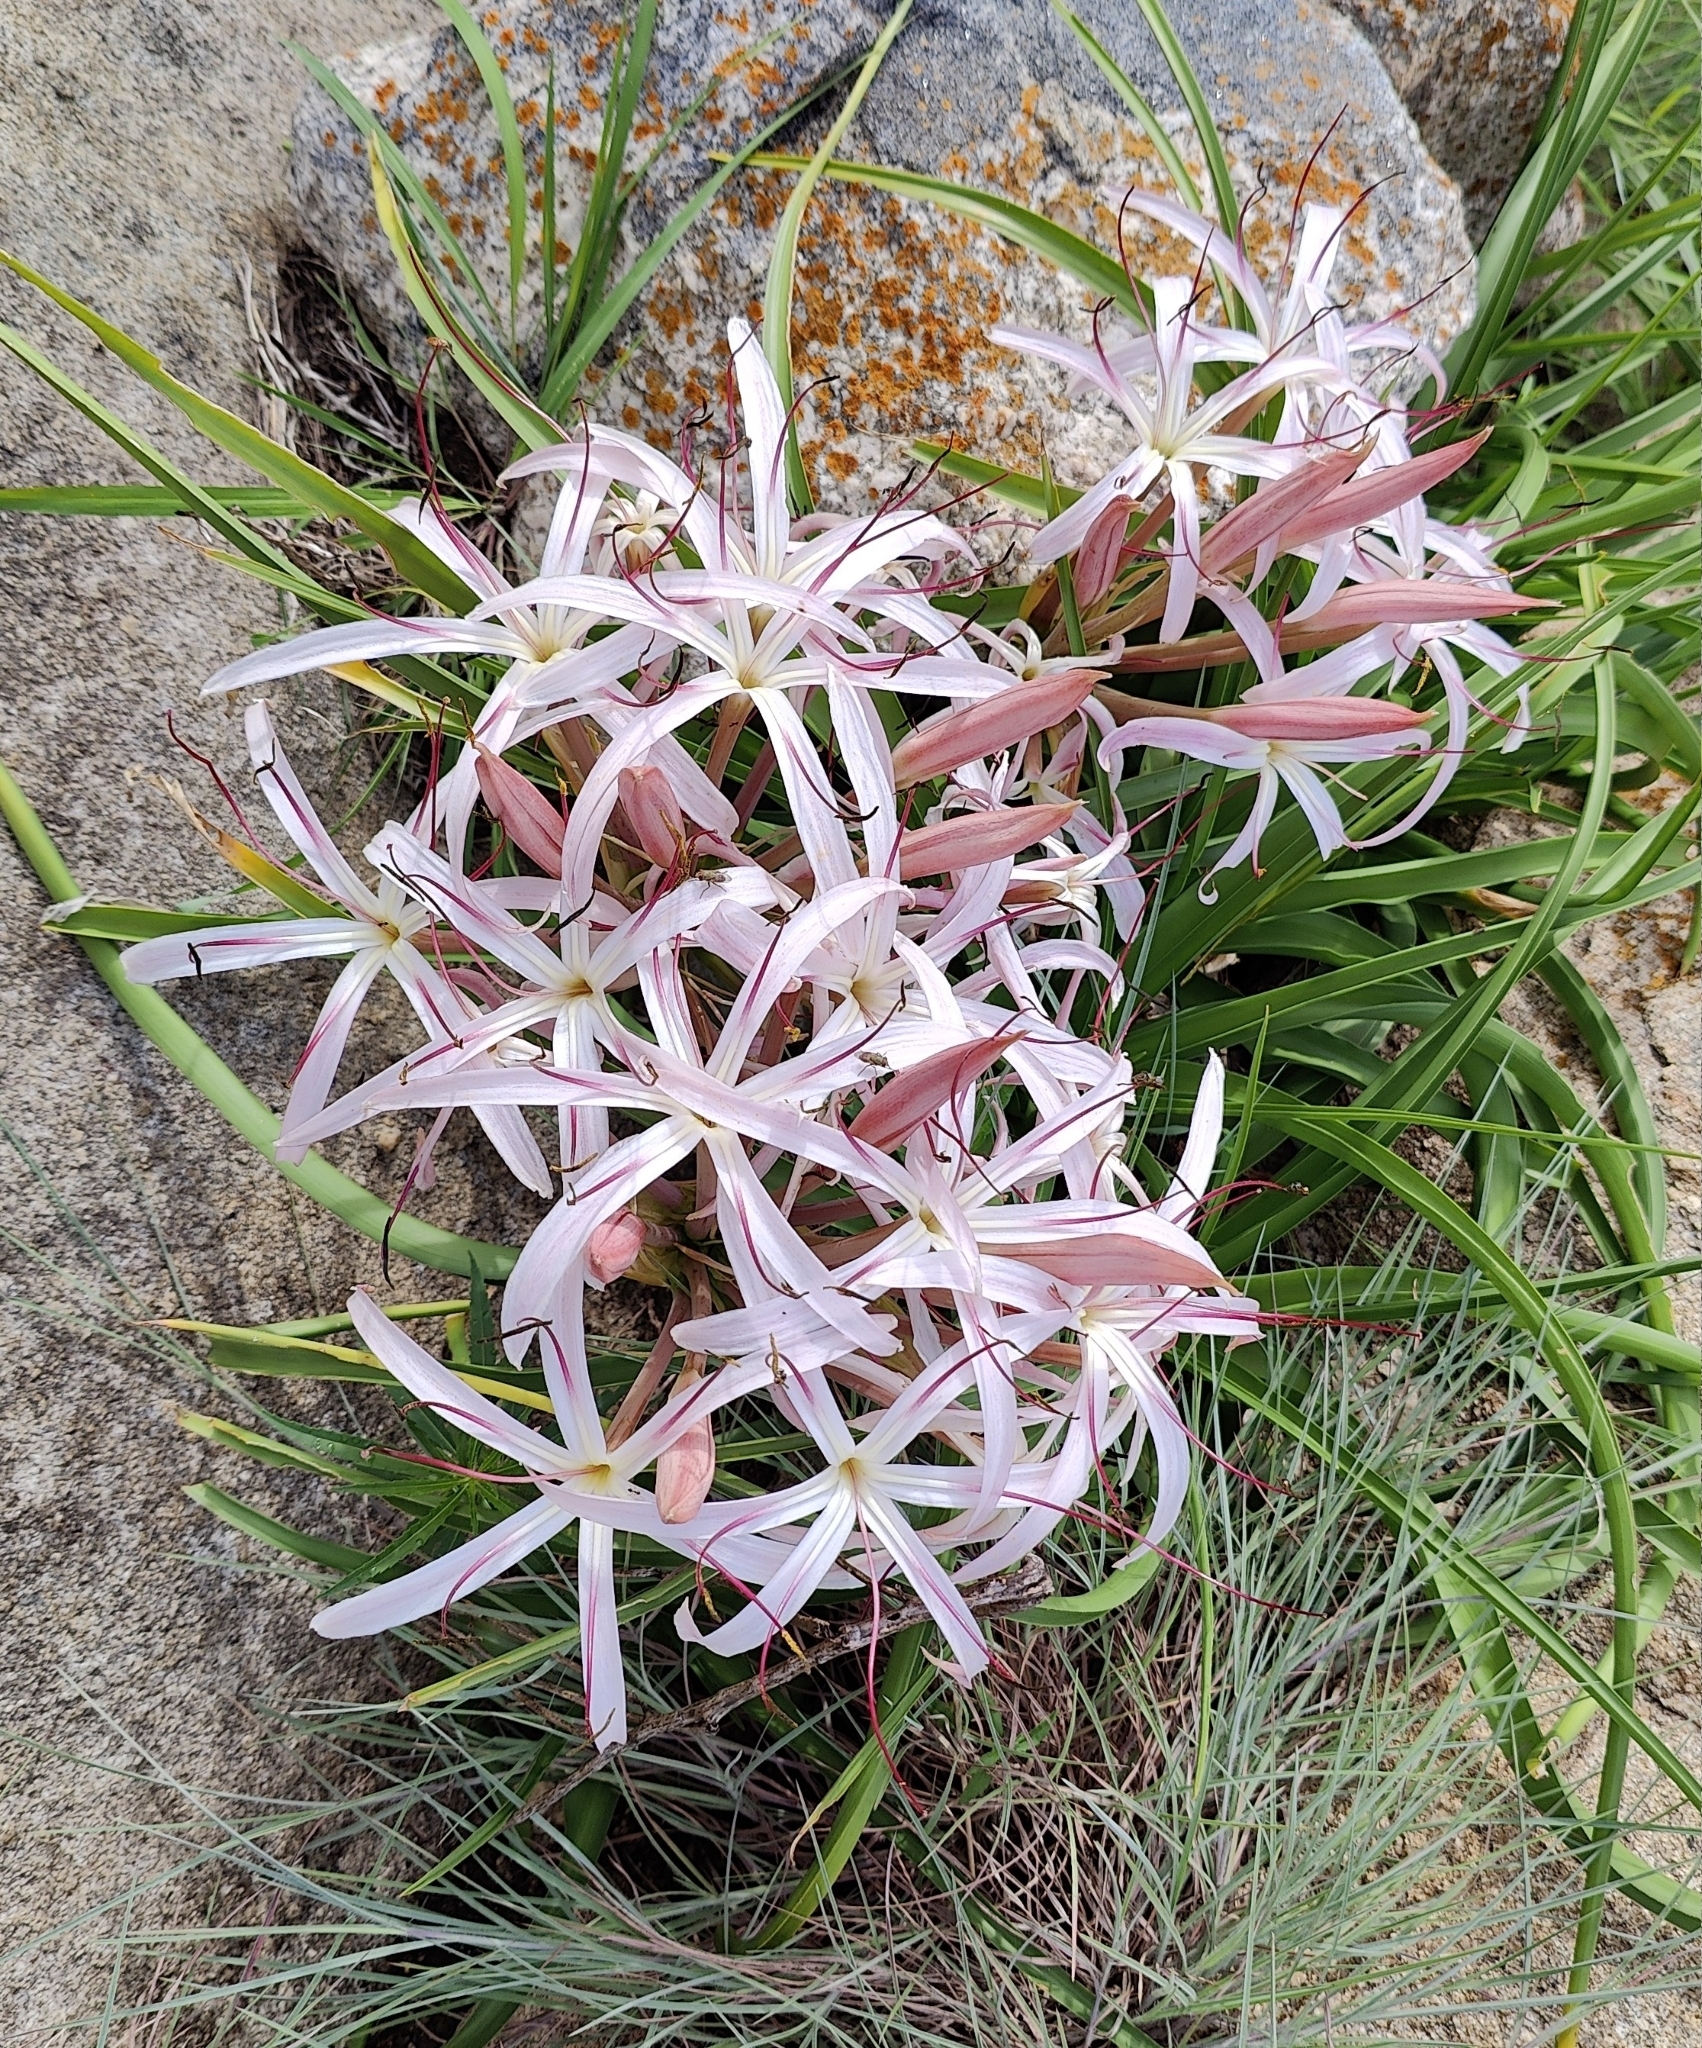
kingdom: Plantae
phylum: Tracheophyta
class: Liliopsida
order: Asparagales
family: Amaryllidaceae
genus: Crinum
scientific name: Crinum asiaticum
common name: Poisonbulb
